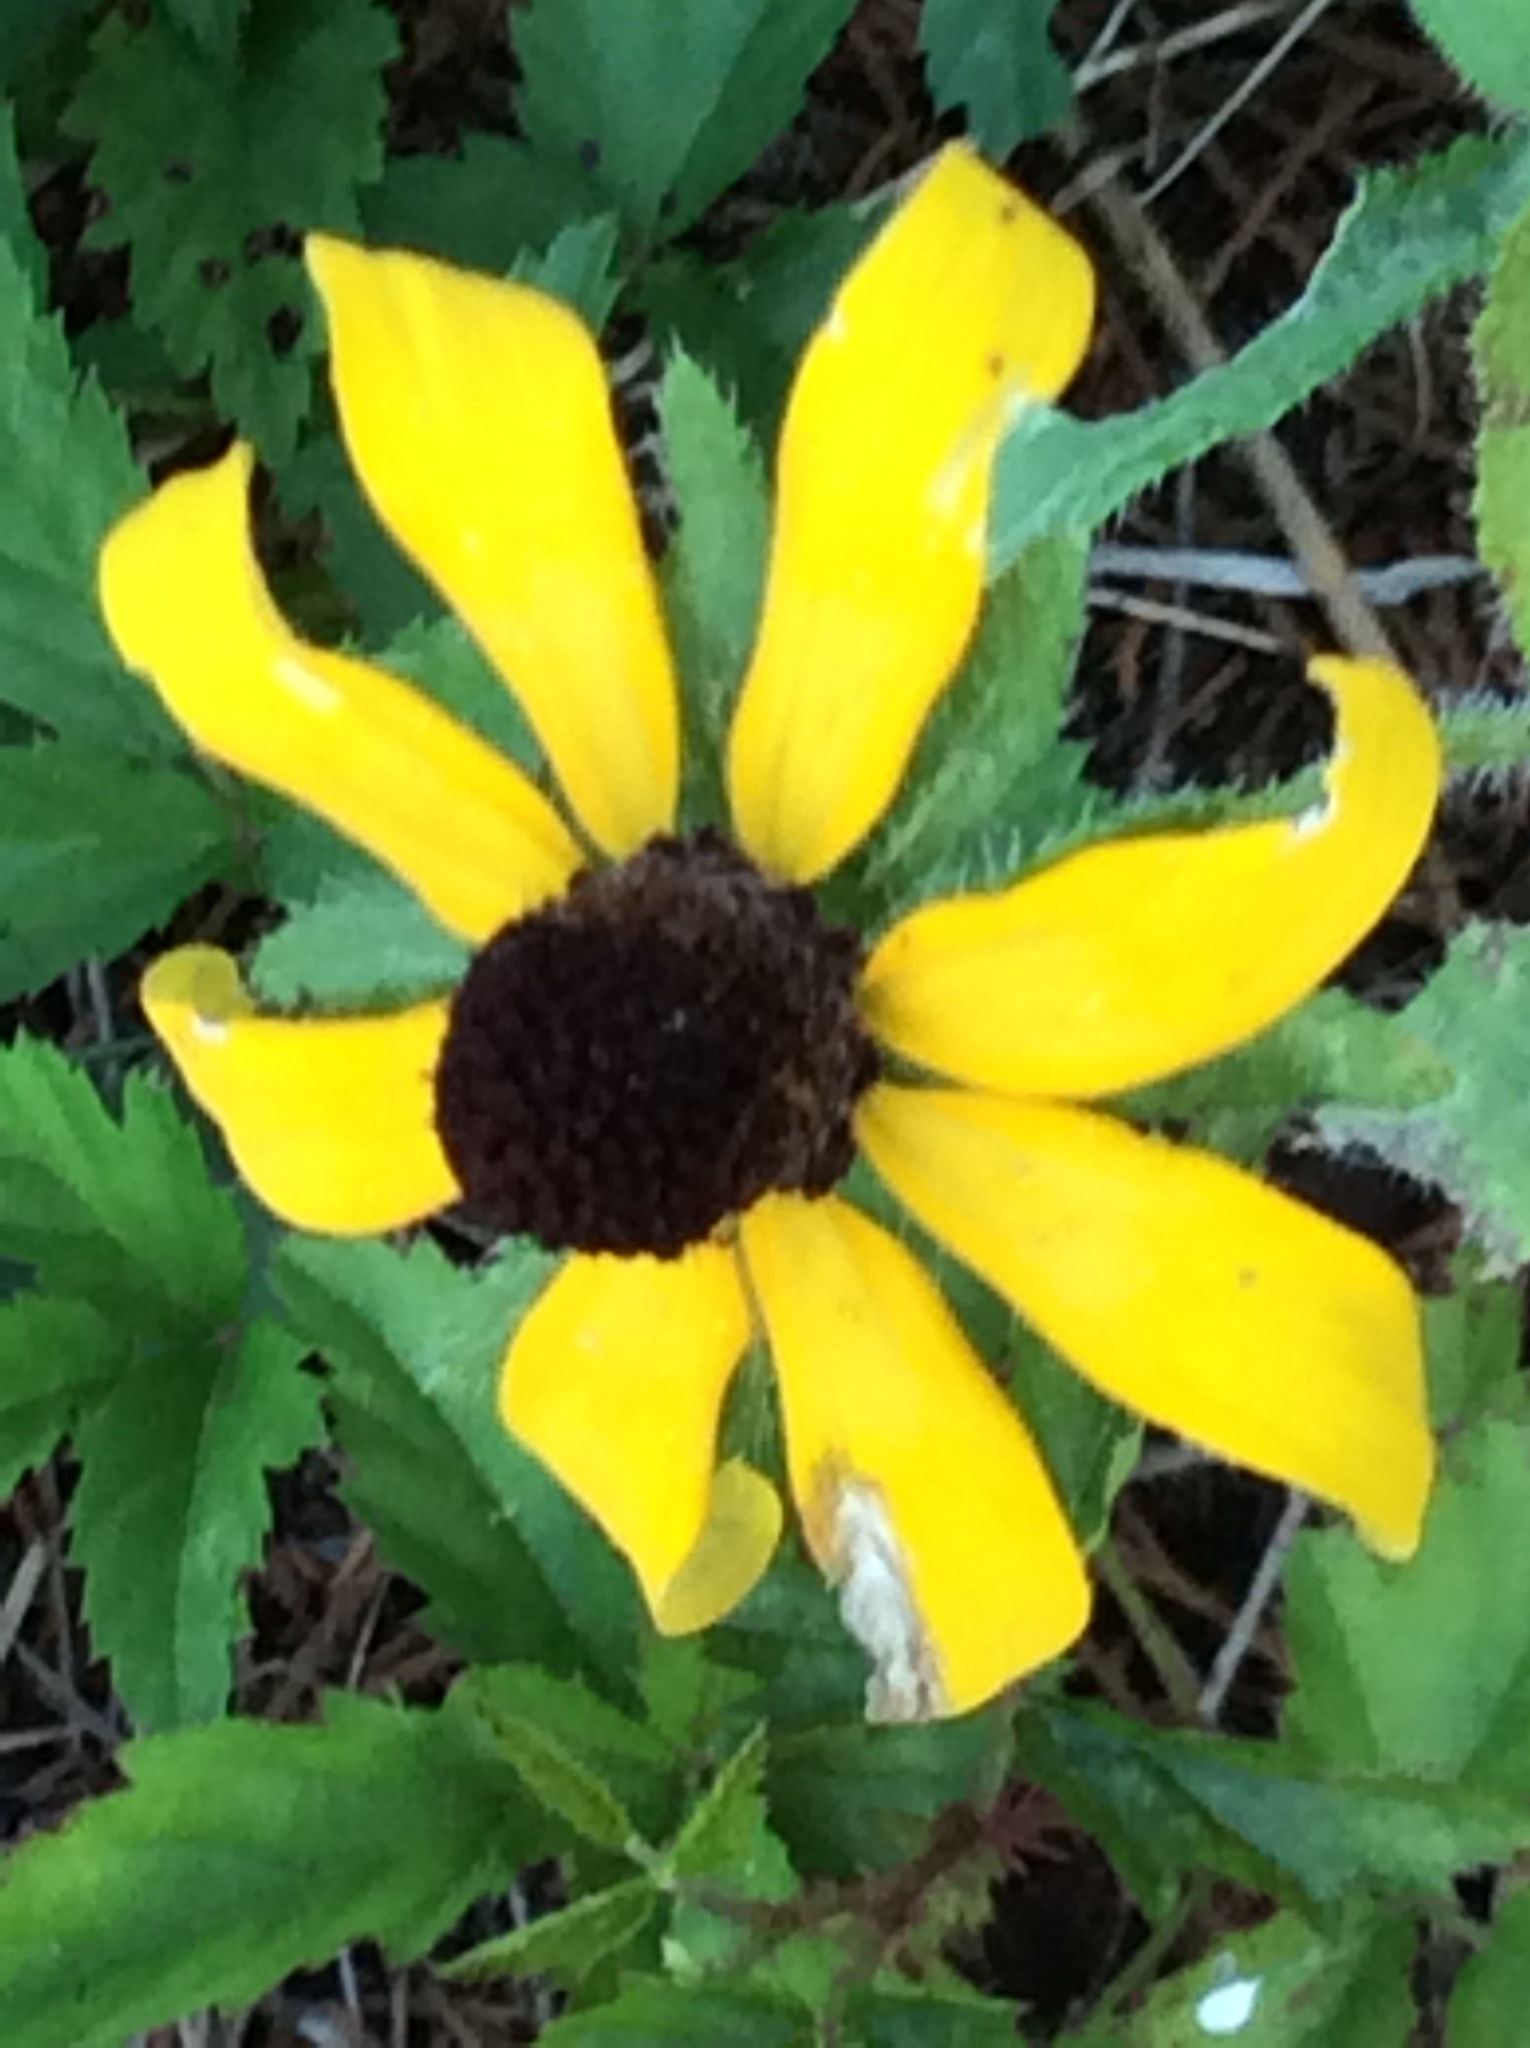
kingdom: Plantae
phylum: Tracheophyta
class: Magnoliopsida
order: Asterales
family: Asteraceae
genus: Rudbeckia
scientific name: Rudbeckia hirta
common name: Black-eyed-susan
